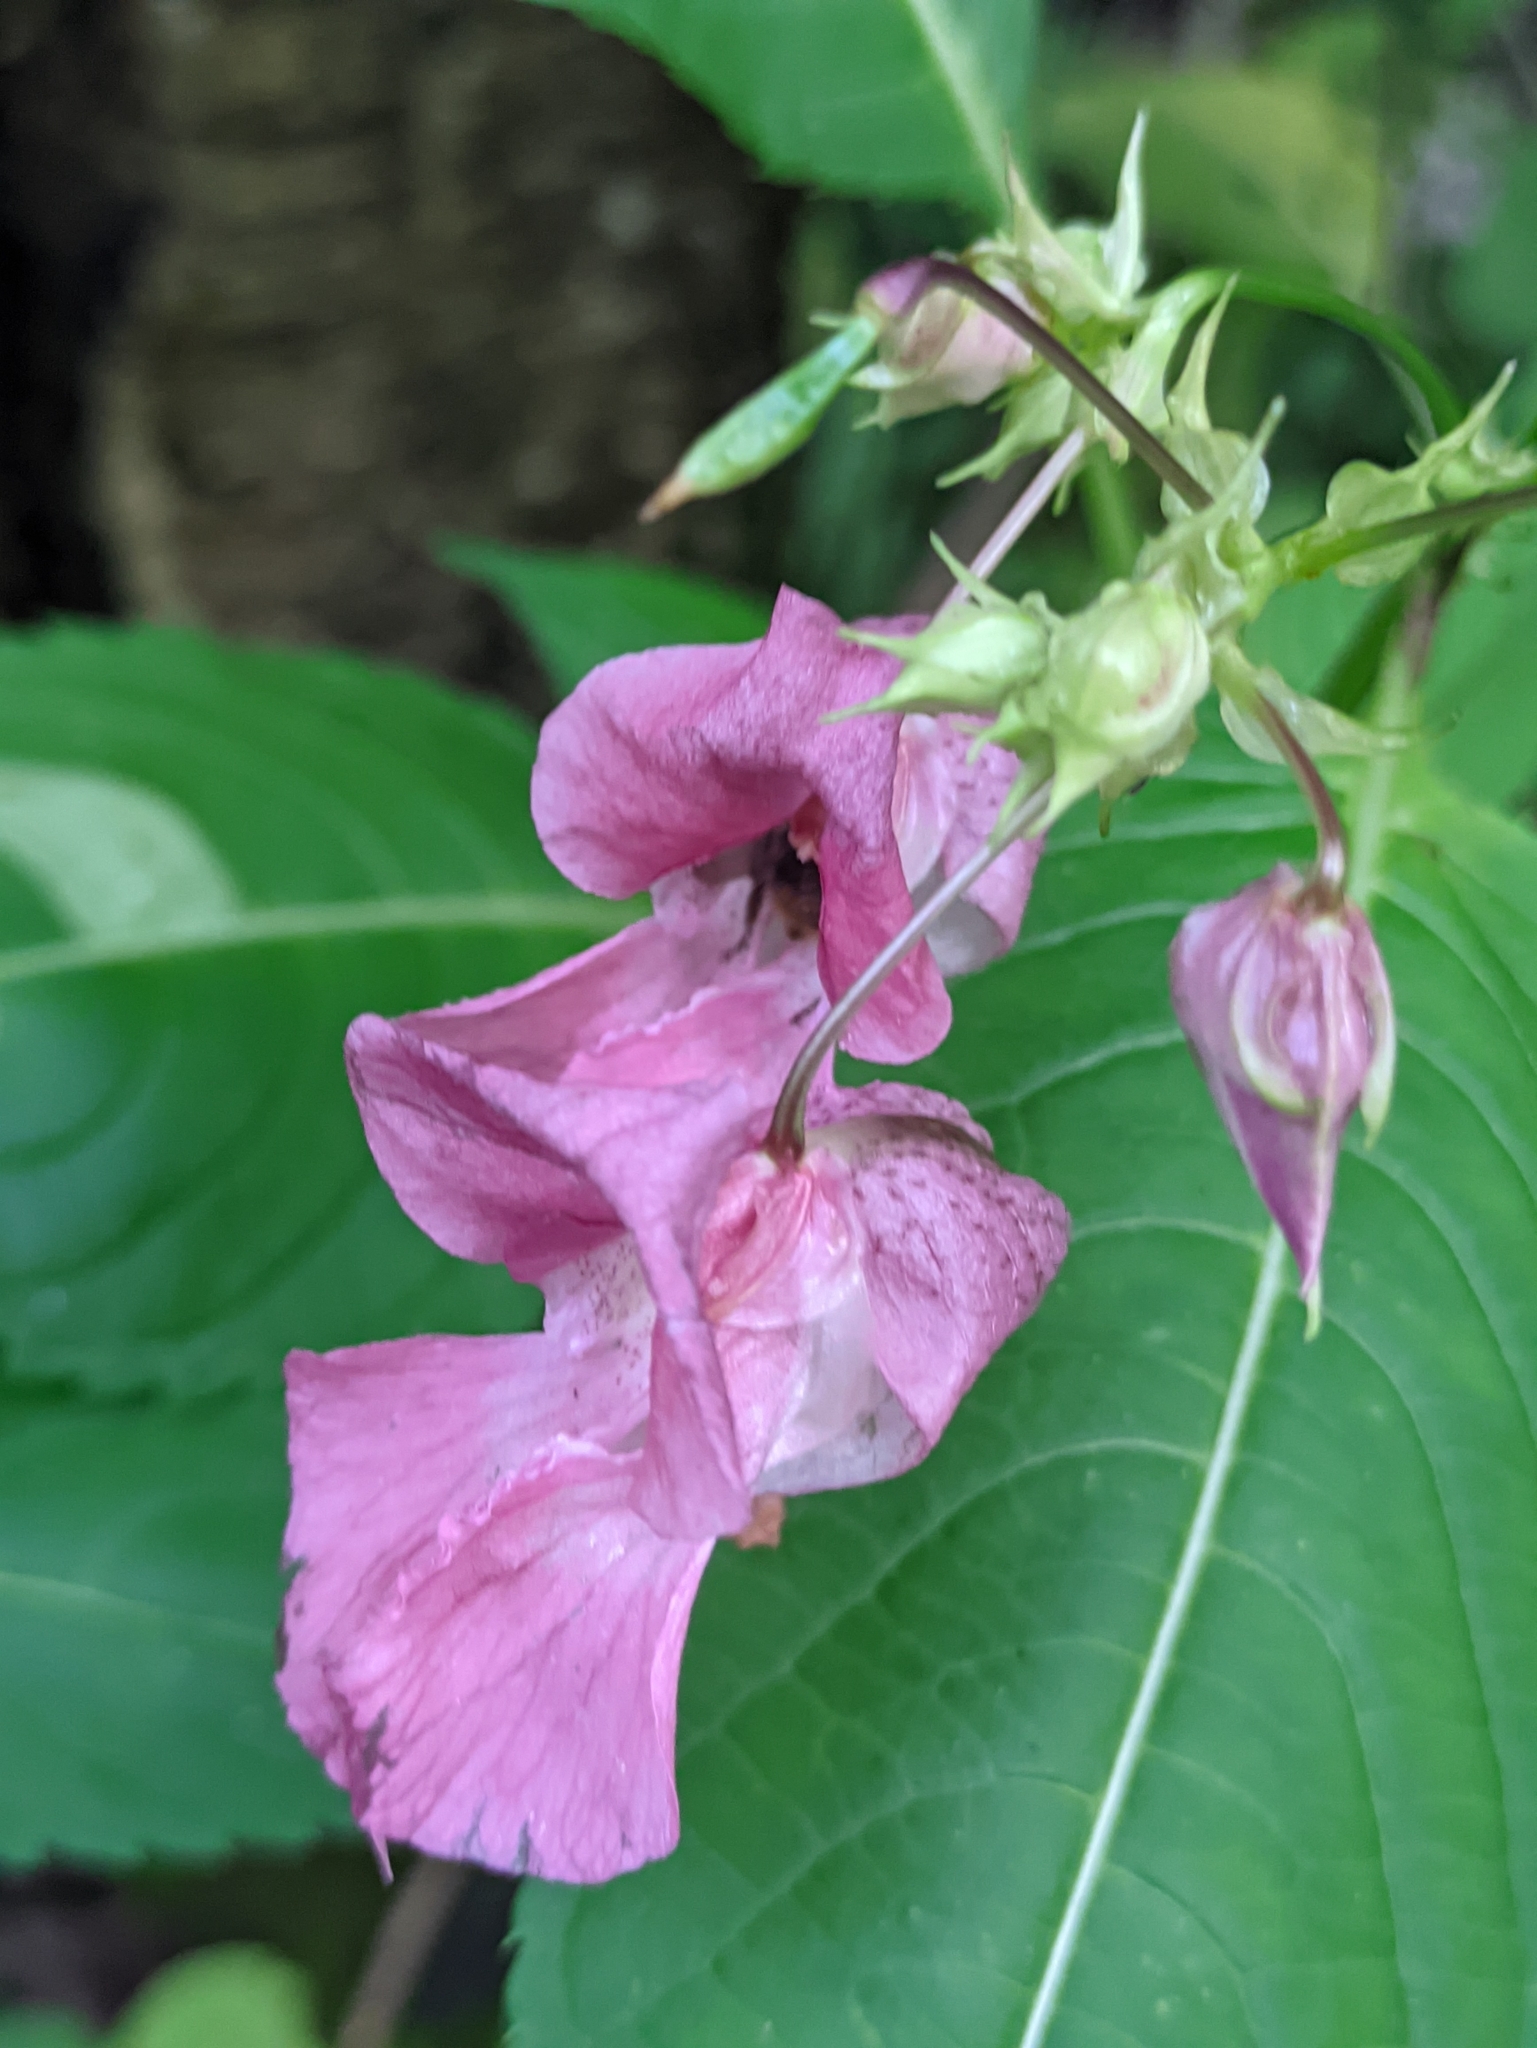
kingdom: Plantae
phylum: Tracheophyta
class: Magnoliopsida
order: Ericales
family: Balsaminaceae
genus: Impatiens
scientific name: Impatiens glandulifera
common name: Himalayan balsam
